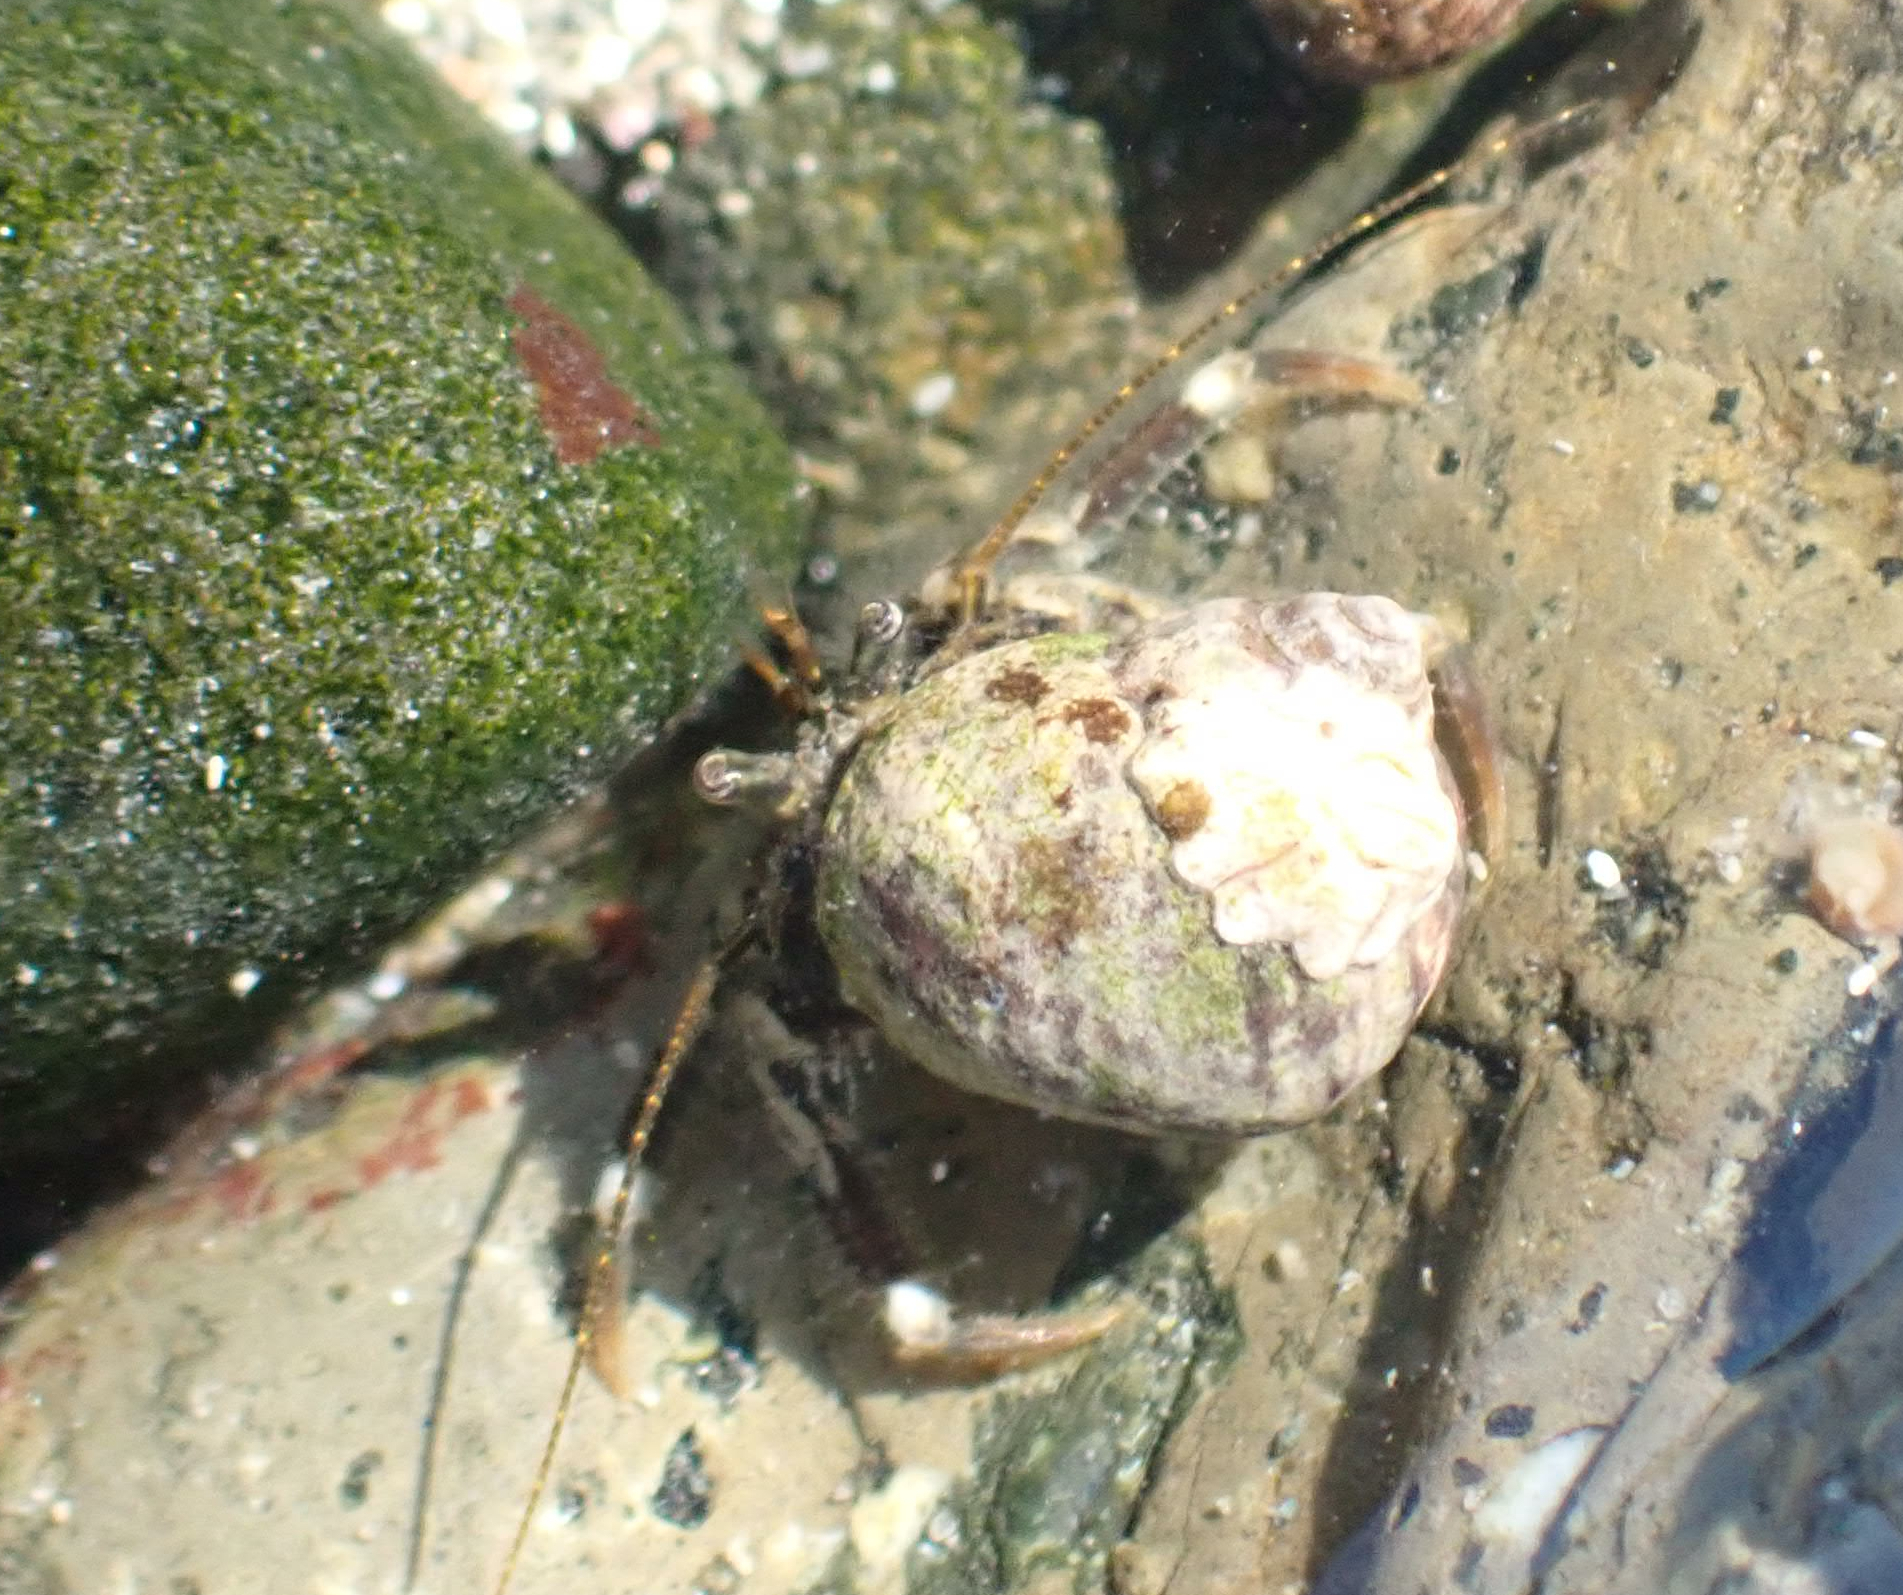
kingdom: Animalia
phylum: Arthropoda
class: Malacostraca
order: Decapoda
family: Paguridae
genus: Pagurus
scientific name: Pagurus hirsutiusculus
